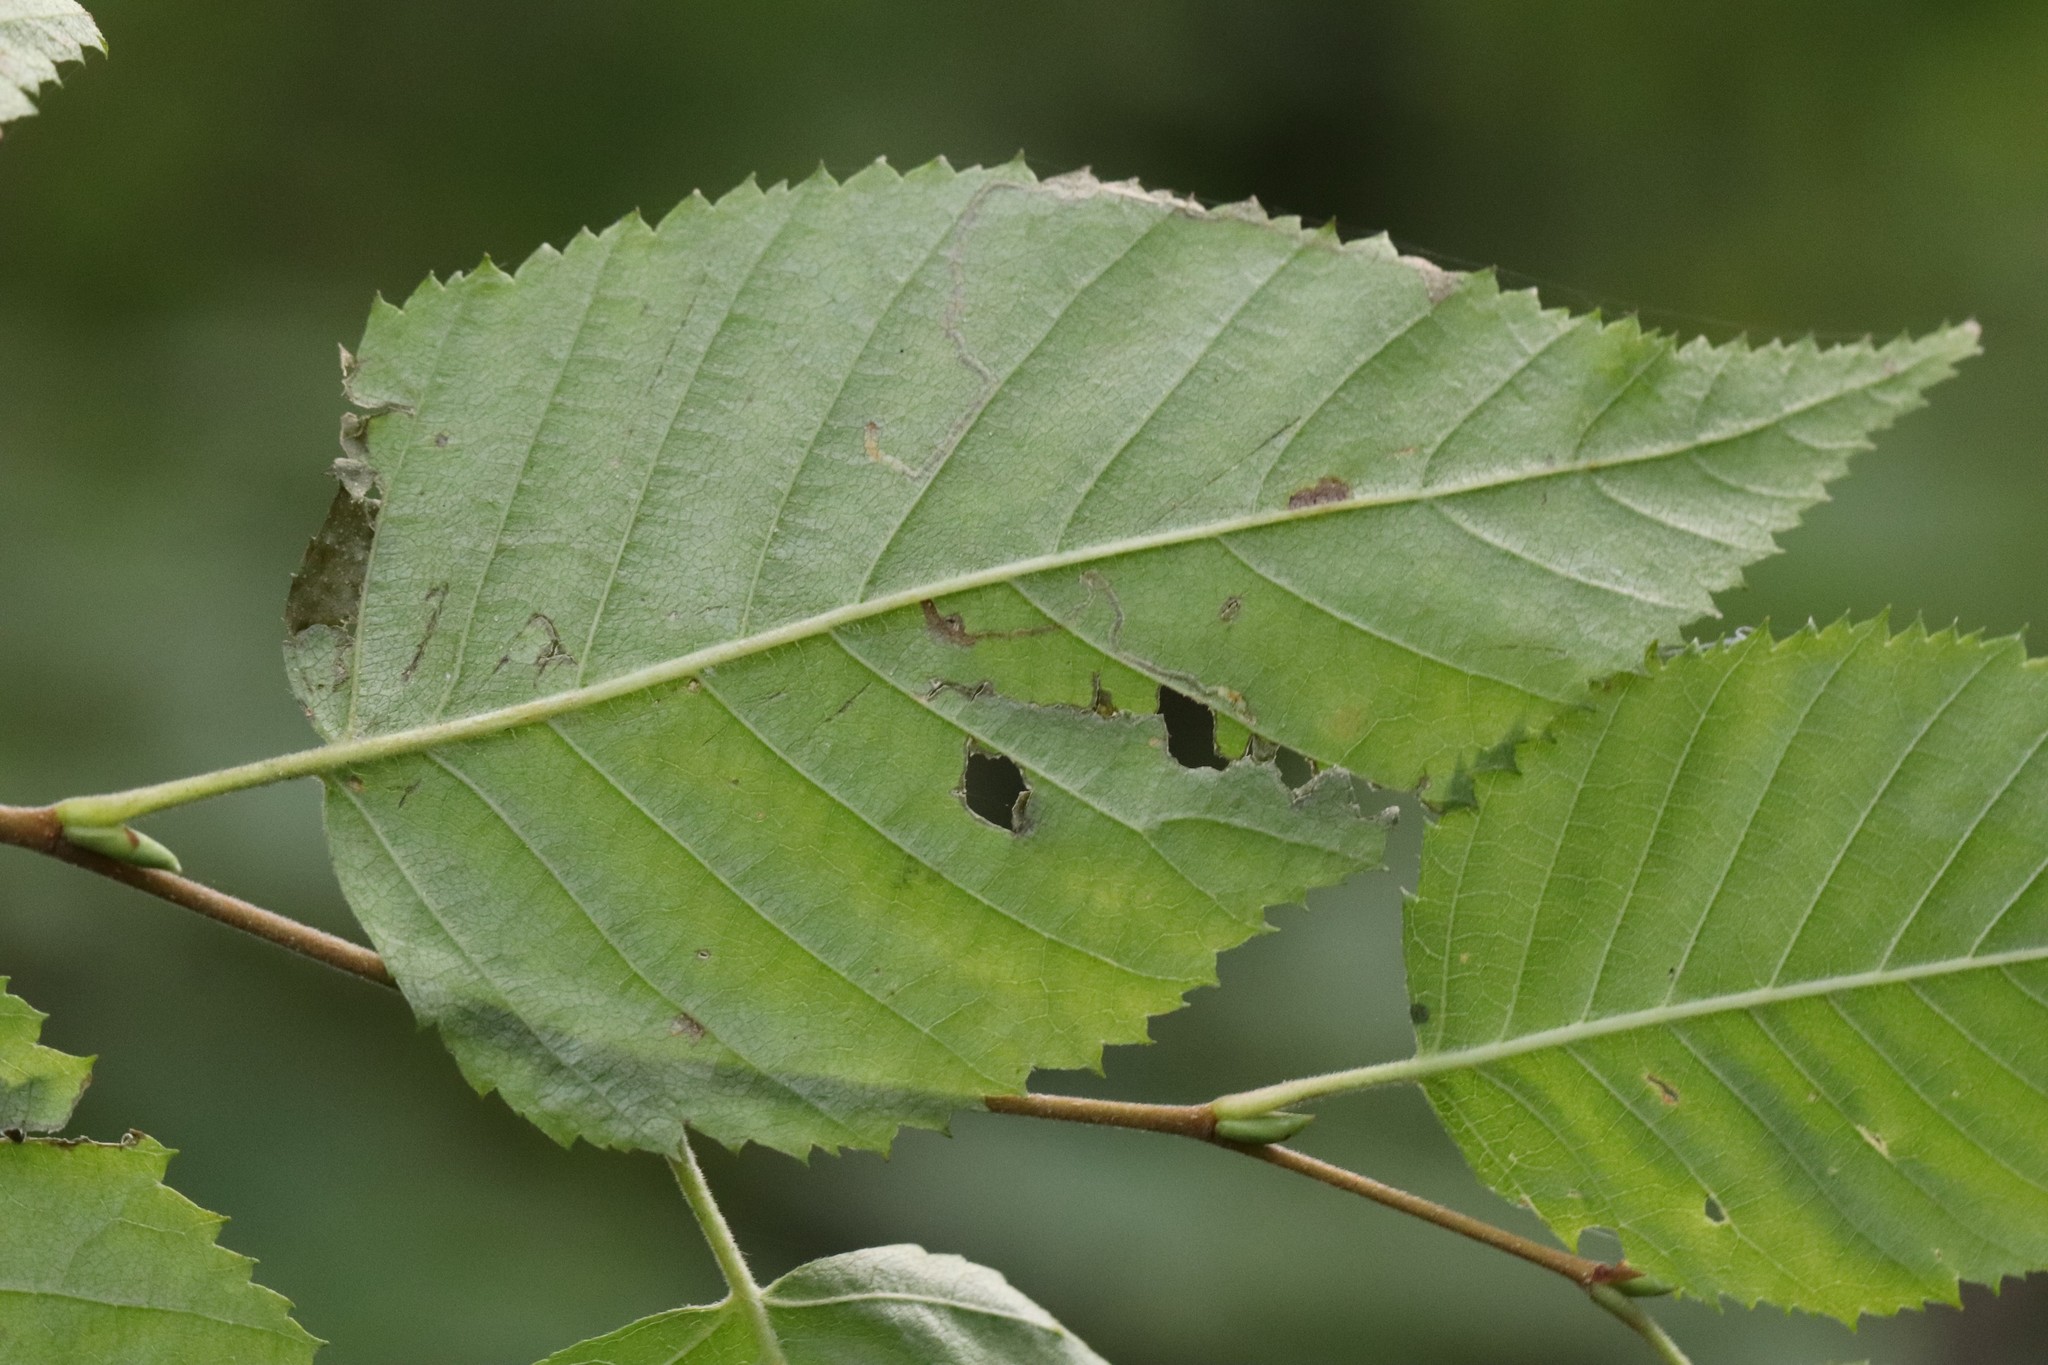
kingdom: Plantae
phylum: Tracheophyta
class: Magnoliopsida
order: Fagales
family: Betulaceae
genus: Betula
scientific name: Betula costata
